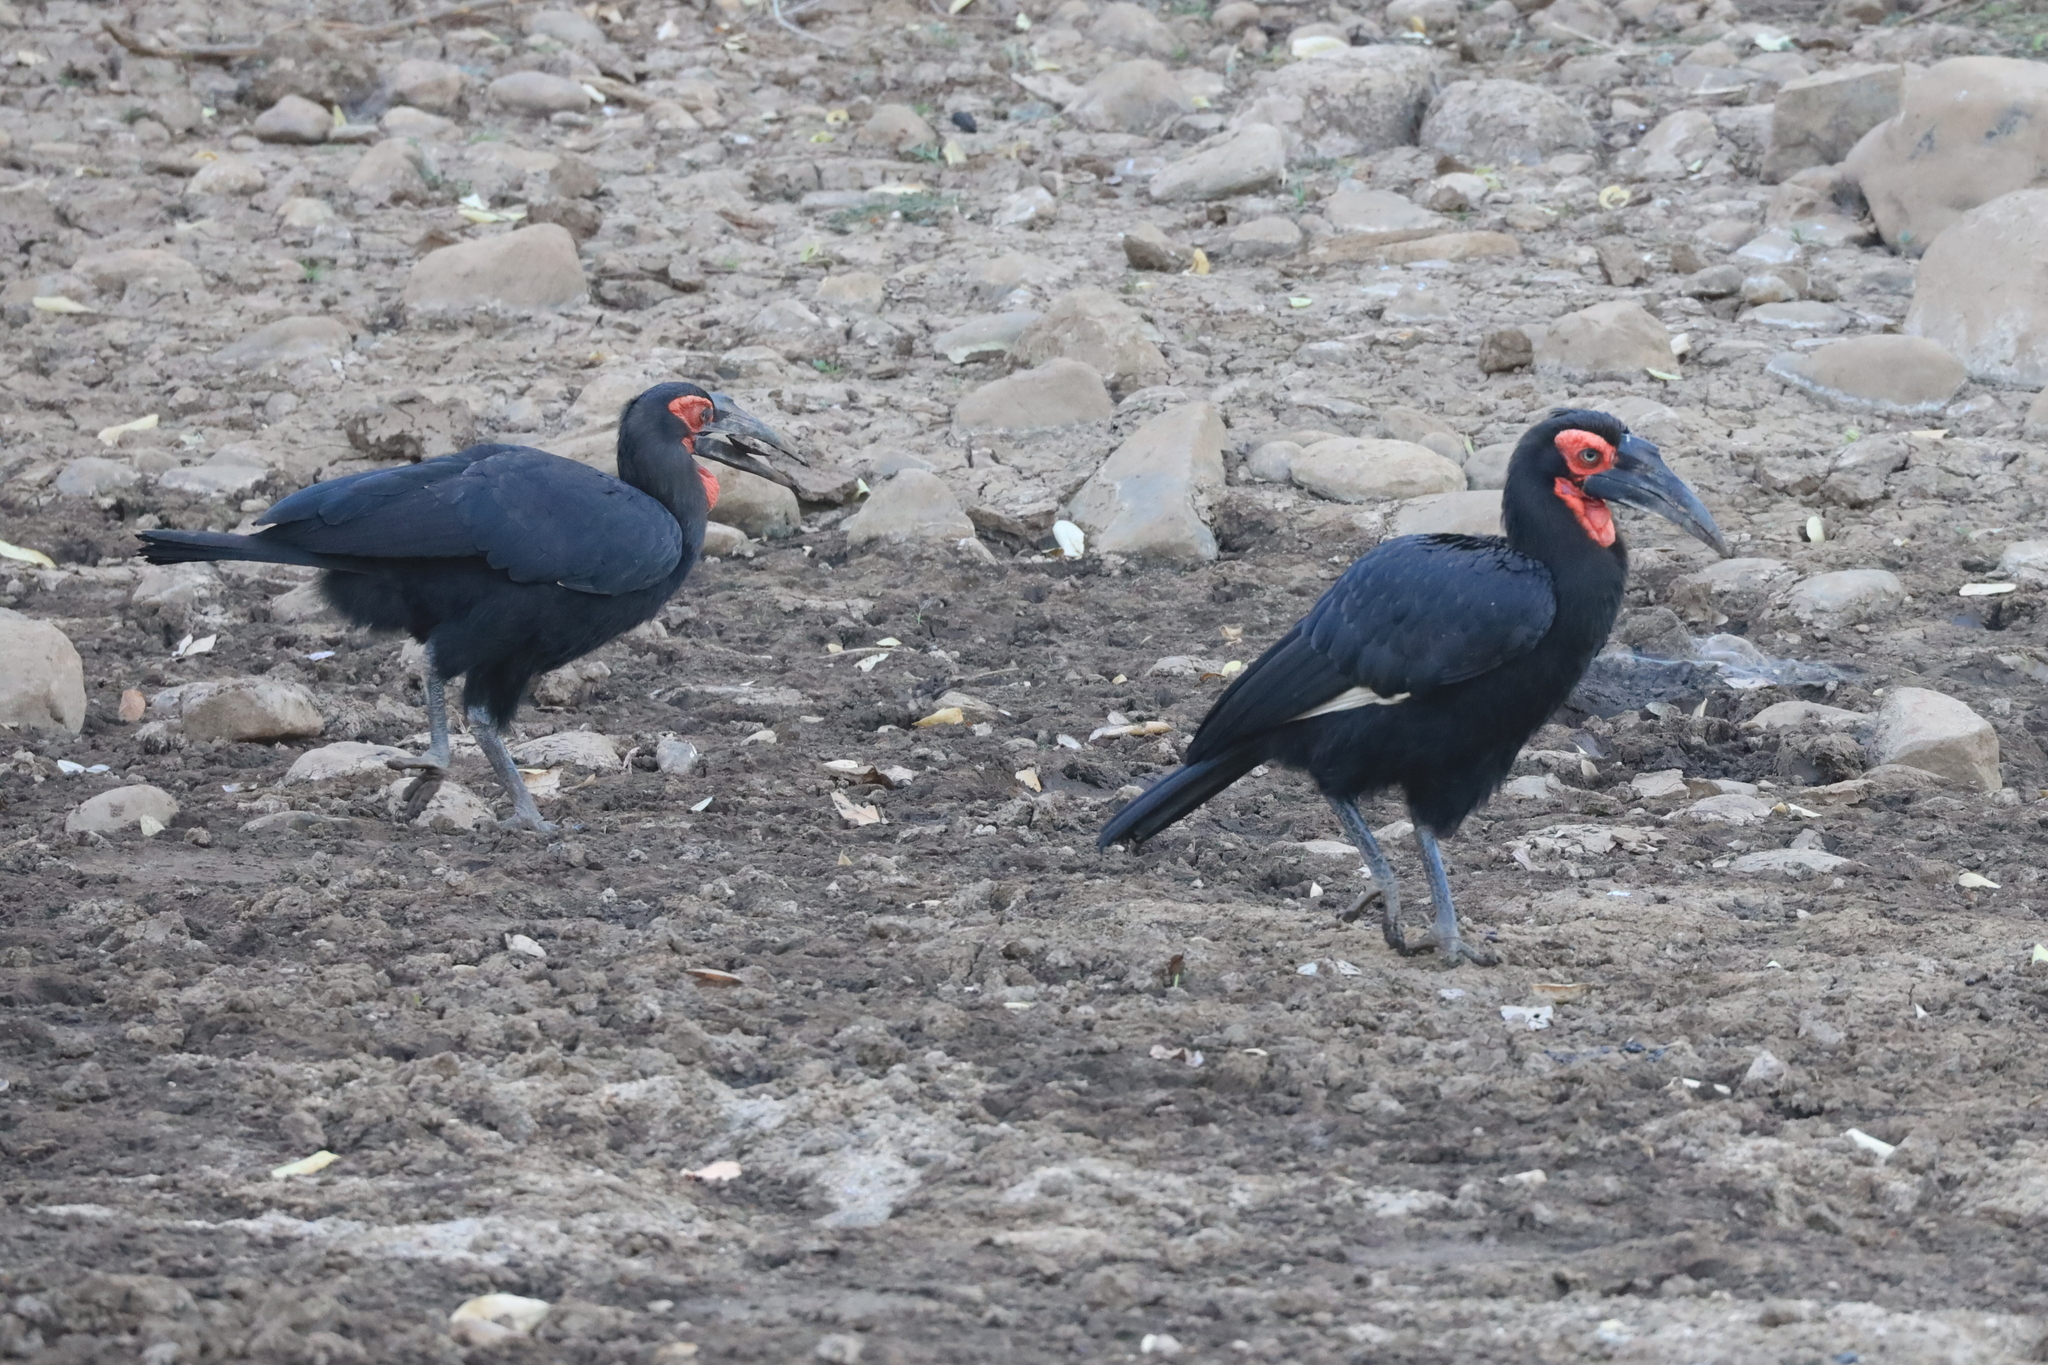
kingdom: Animalia
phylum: Chordata
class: Aves
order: Bucerotiformes
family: Bucorvidae
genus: Bucorvus
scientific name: Bucorvus leadbeateri
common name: Southern ground-hornbill
